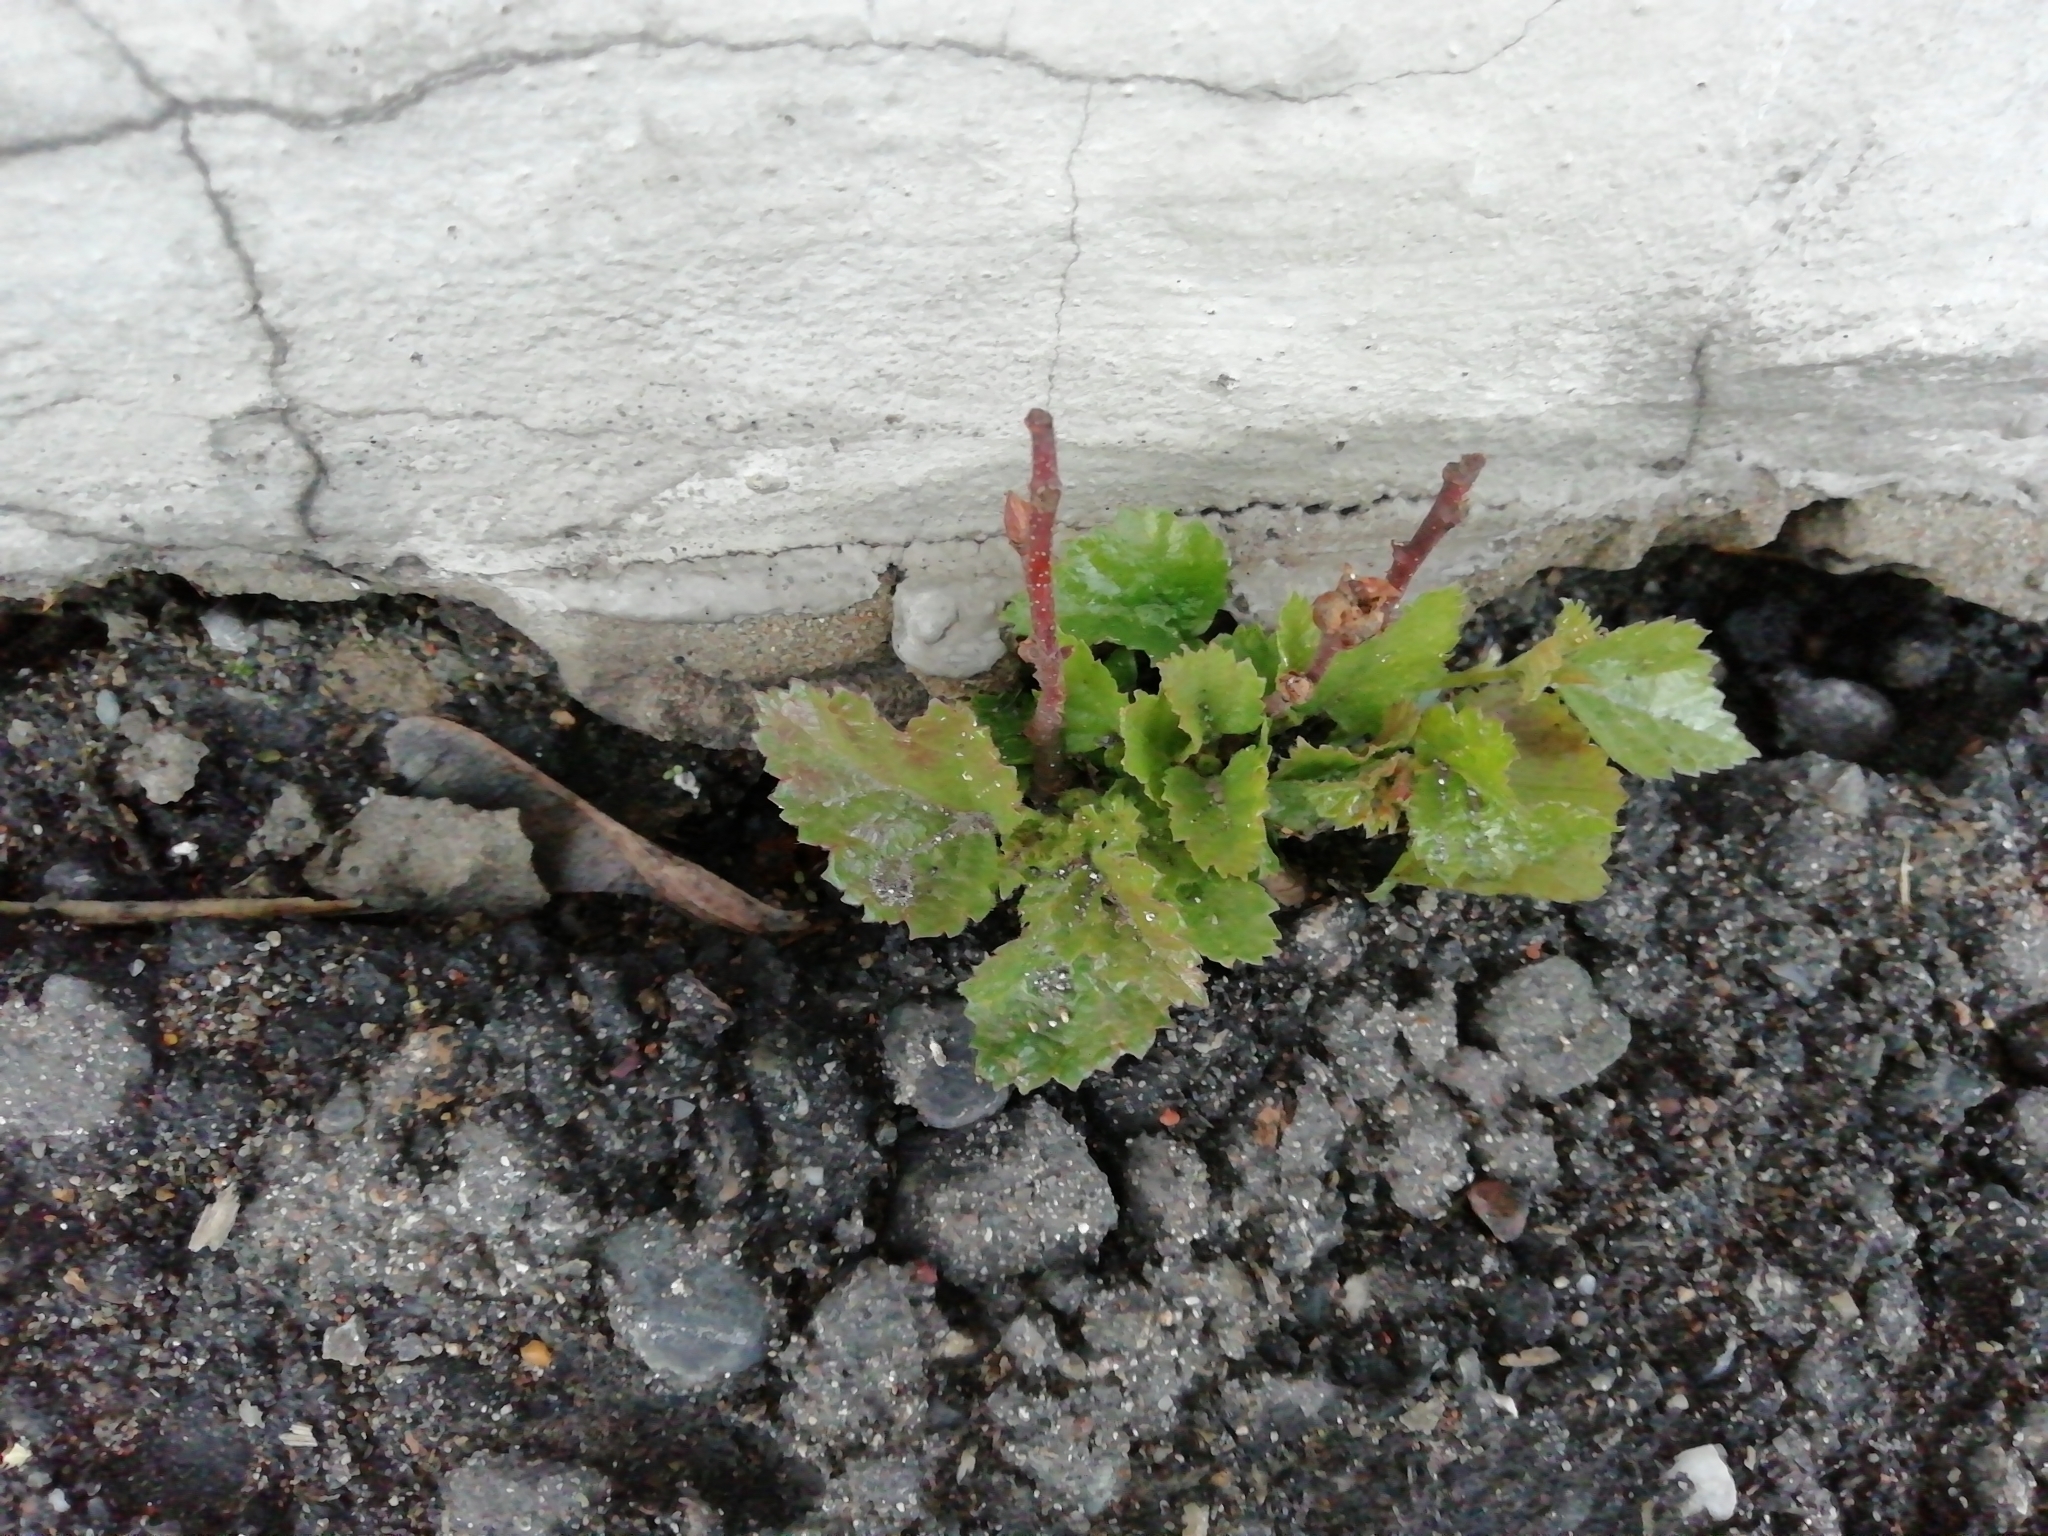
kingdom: Plantae
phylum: Tracheophyta
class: Magnoliopsida
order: Fagales
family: Betulaceae
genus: Betula
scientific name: Betula pendula
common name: Silver birch
